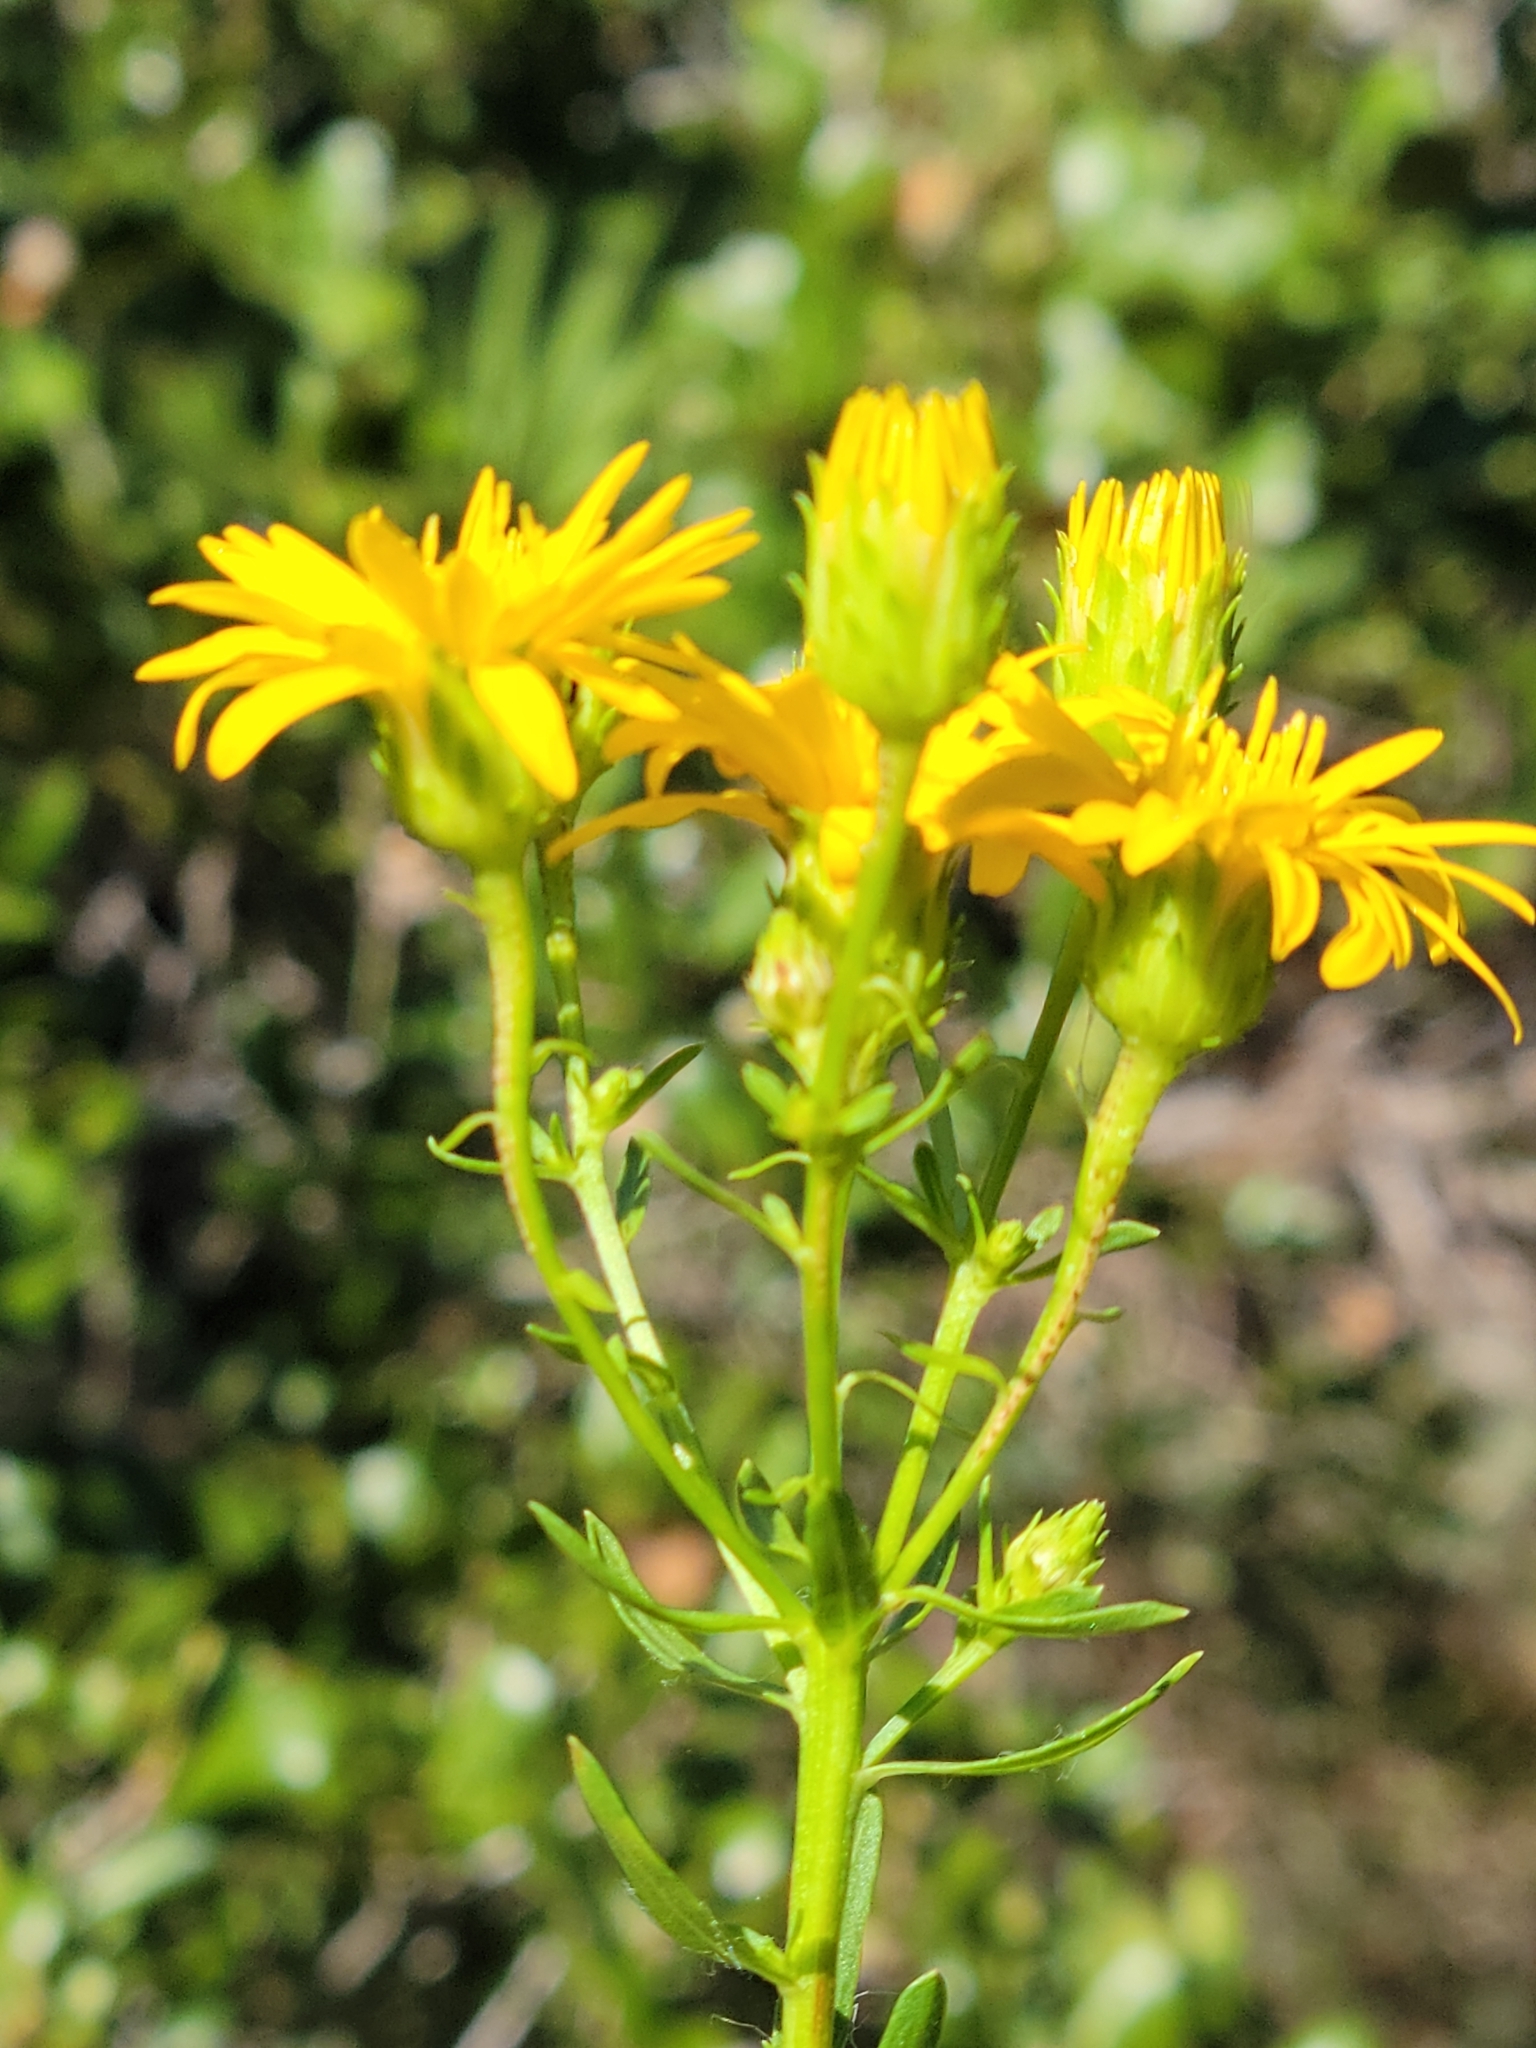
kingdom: Plantae
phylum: Tracheophyta
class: Magnoliopsida
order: Asterales
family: Asteraceae
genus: Chrysopsis
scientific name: Chrysopsis gossypina
